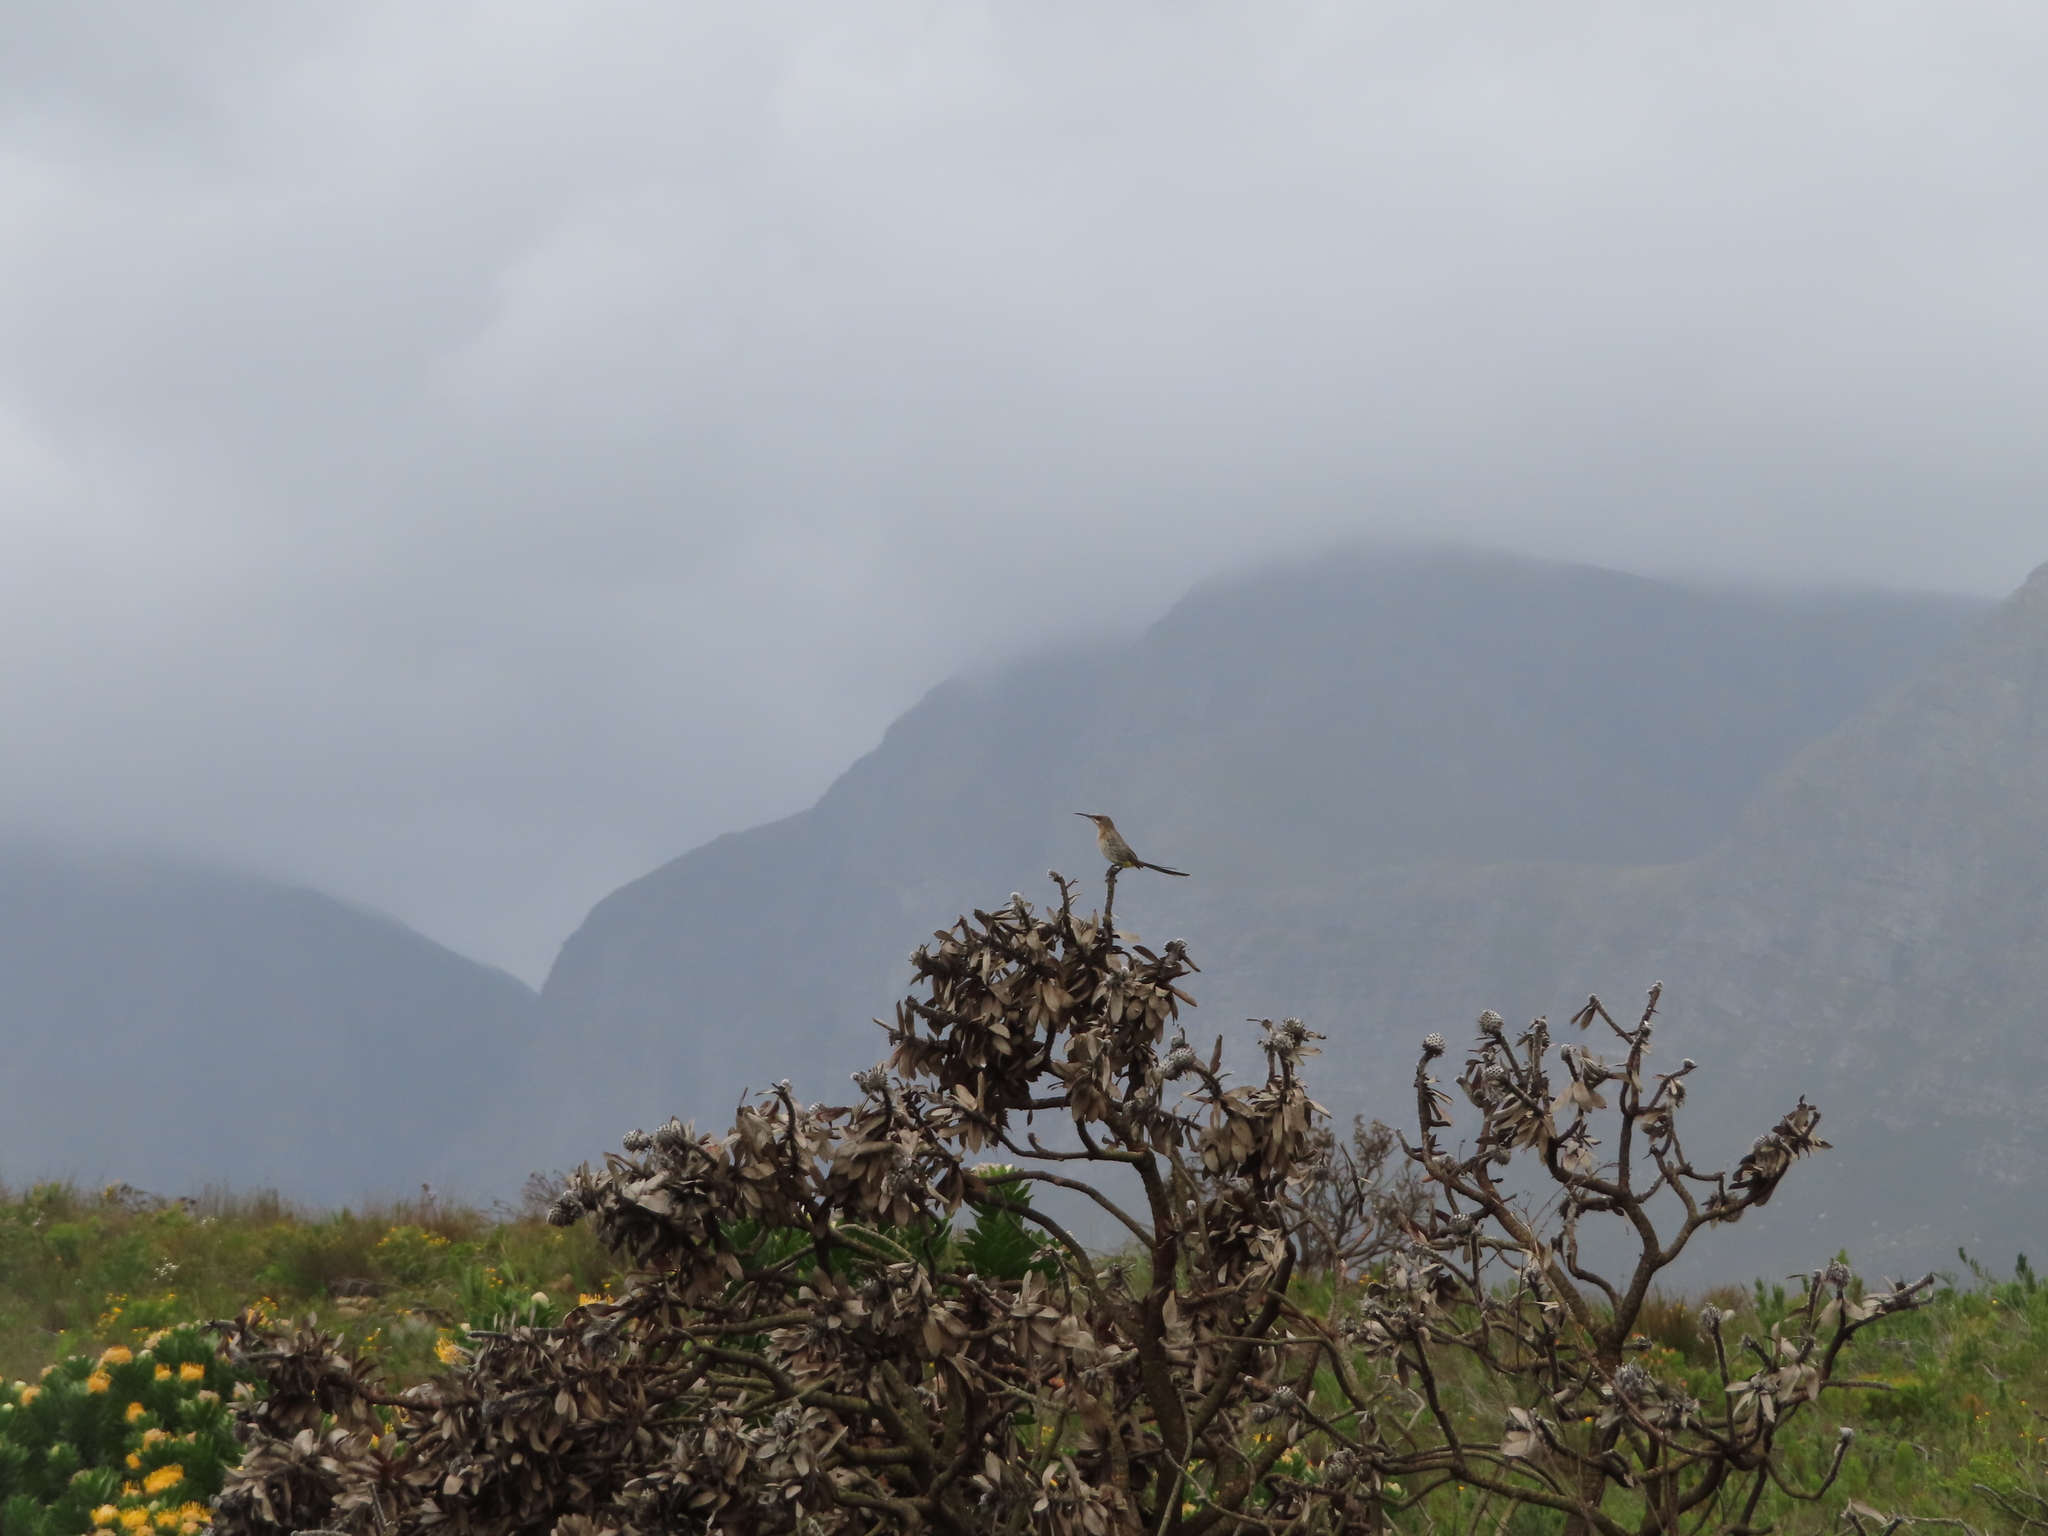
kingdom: Animalia
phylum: Chordata
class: Aves
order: Passeriformes
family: Promeropidae
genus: Promerops
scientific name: Promerops cafer
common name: Cape sugarbird
